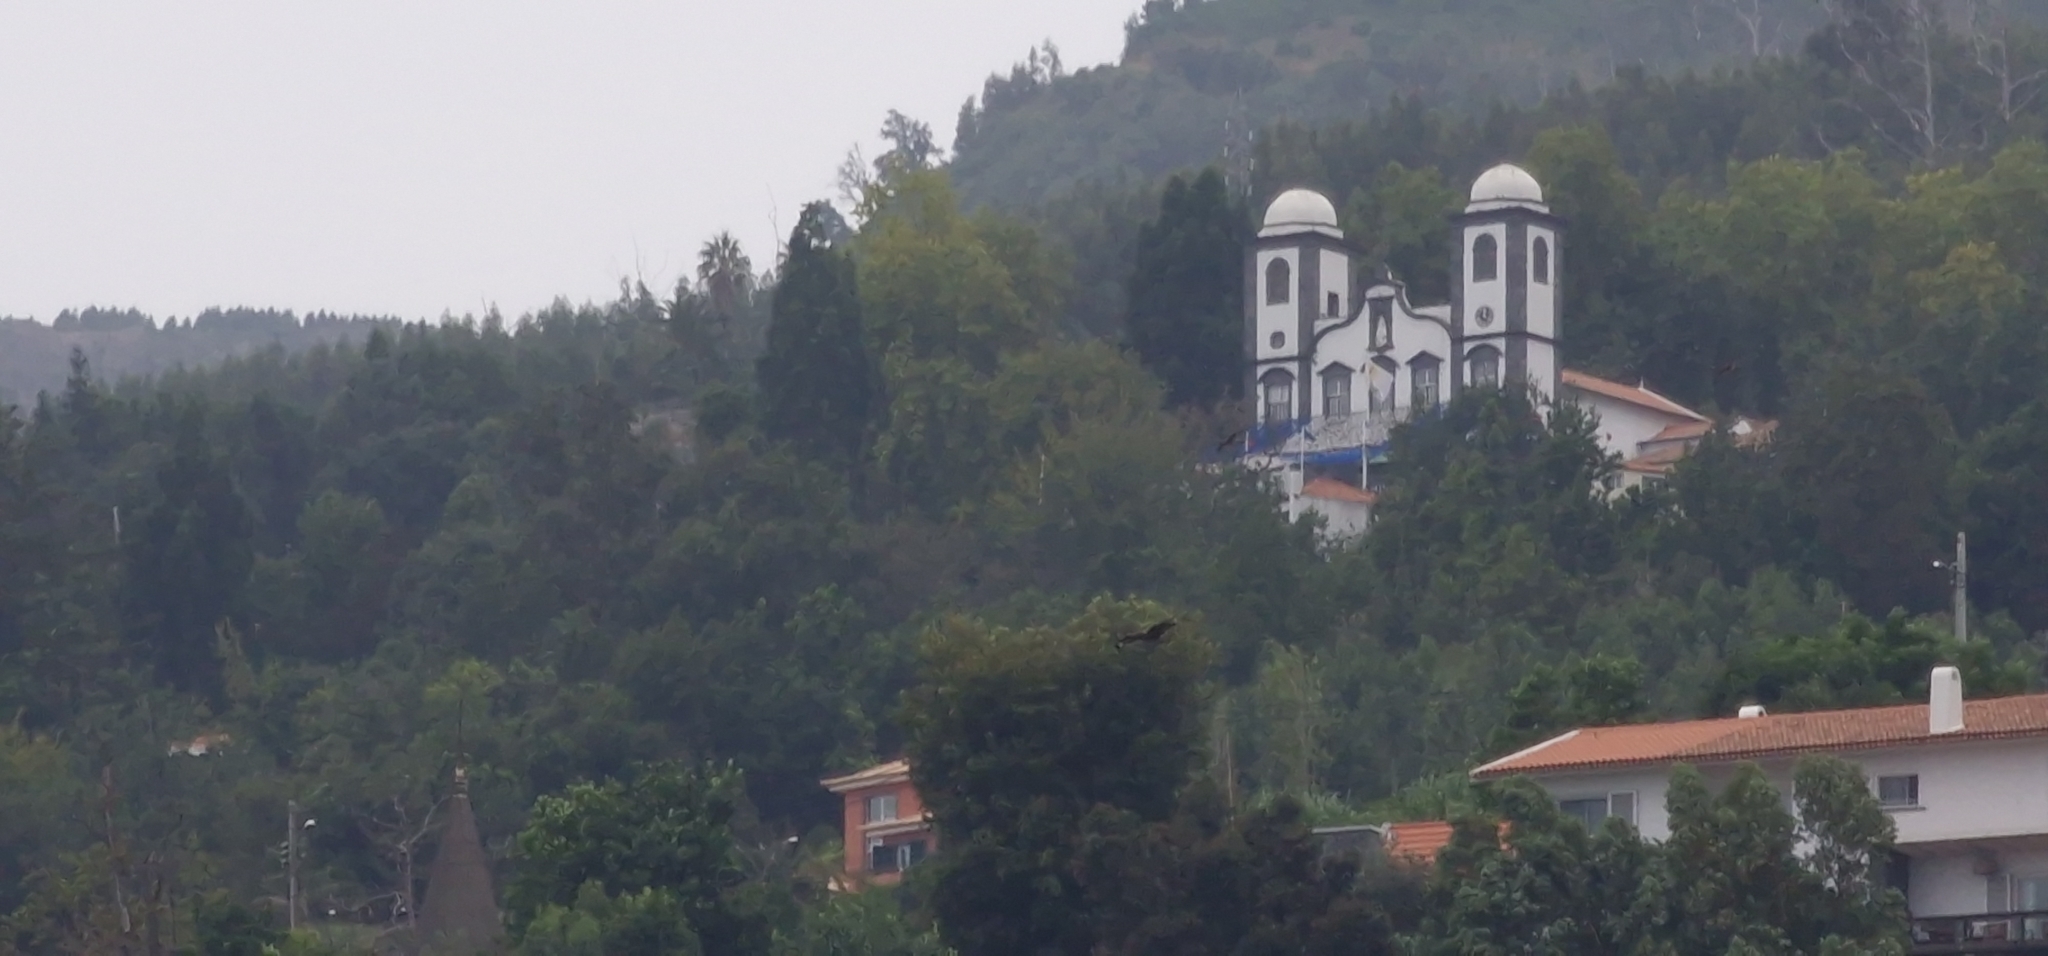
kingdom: Animalia
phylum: Chordata
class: Aves
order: Accipitriformes
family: Accipitridae
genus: Buteo
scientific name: Buteo buteo
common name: Common buzzard
